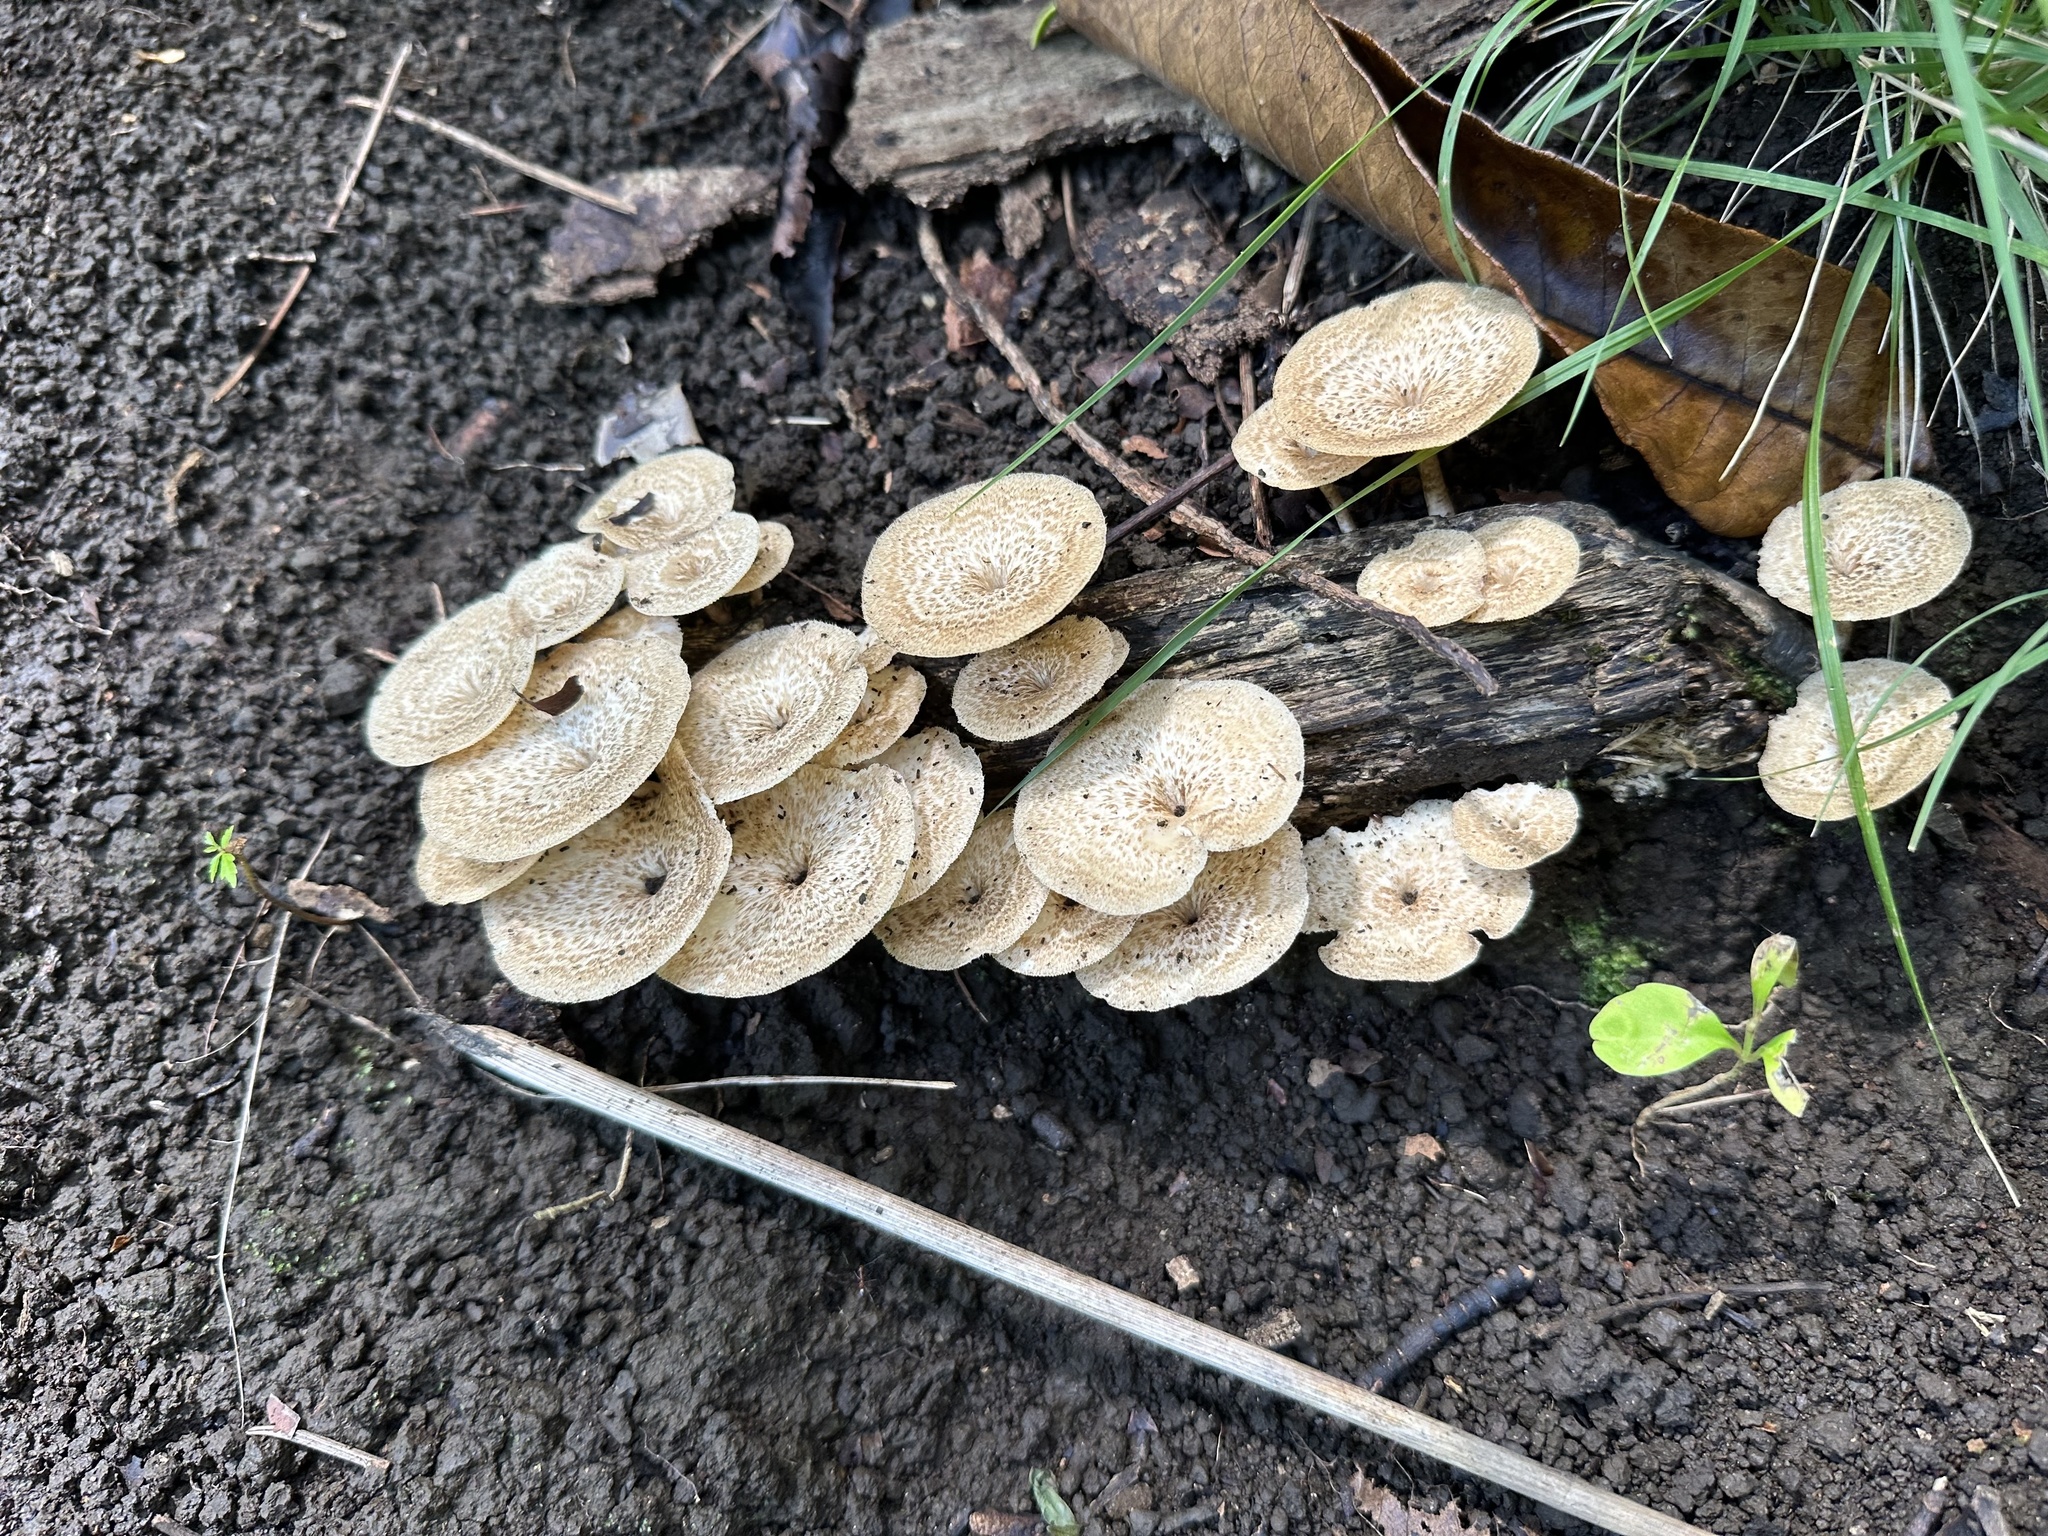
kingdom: Fungi
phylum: Basidiomycota
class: Agaricomycetes
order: Polyporales
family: Polyporaceae
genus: Lentinus
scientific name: Lentinus arcularius
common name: Spring polypore
